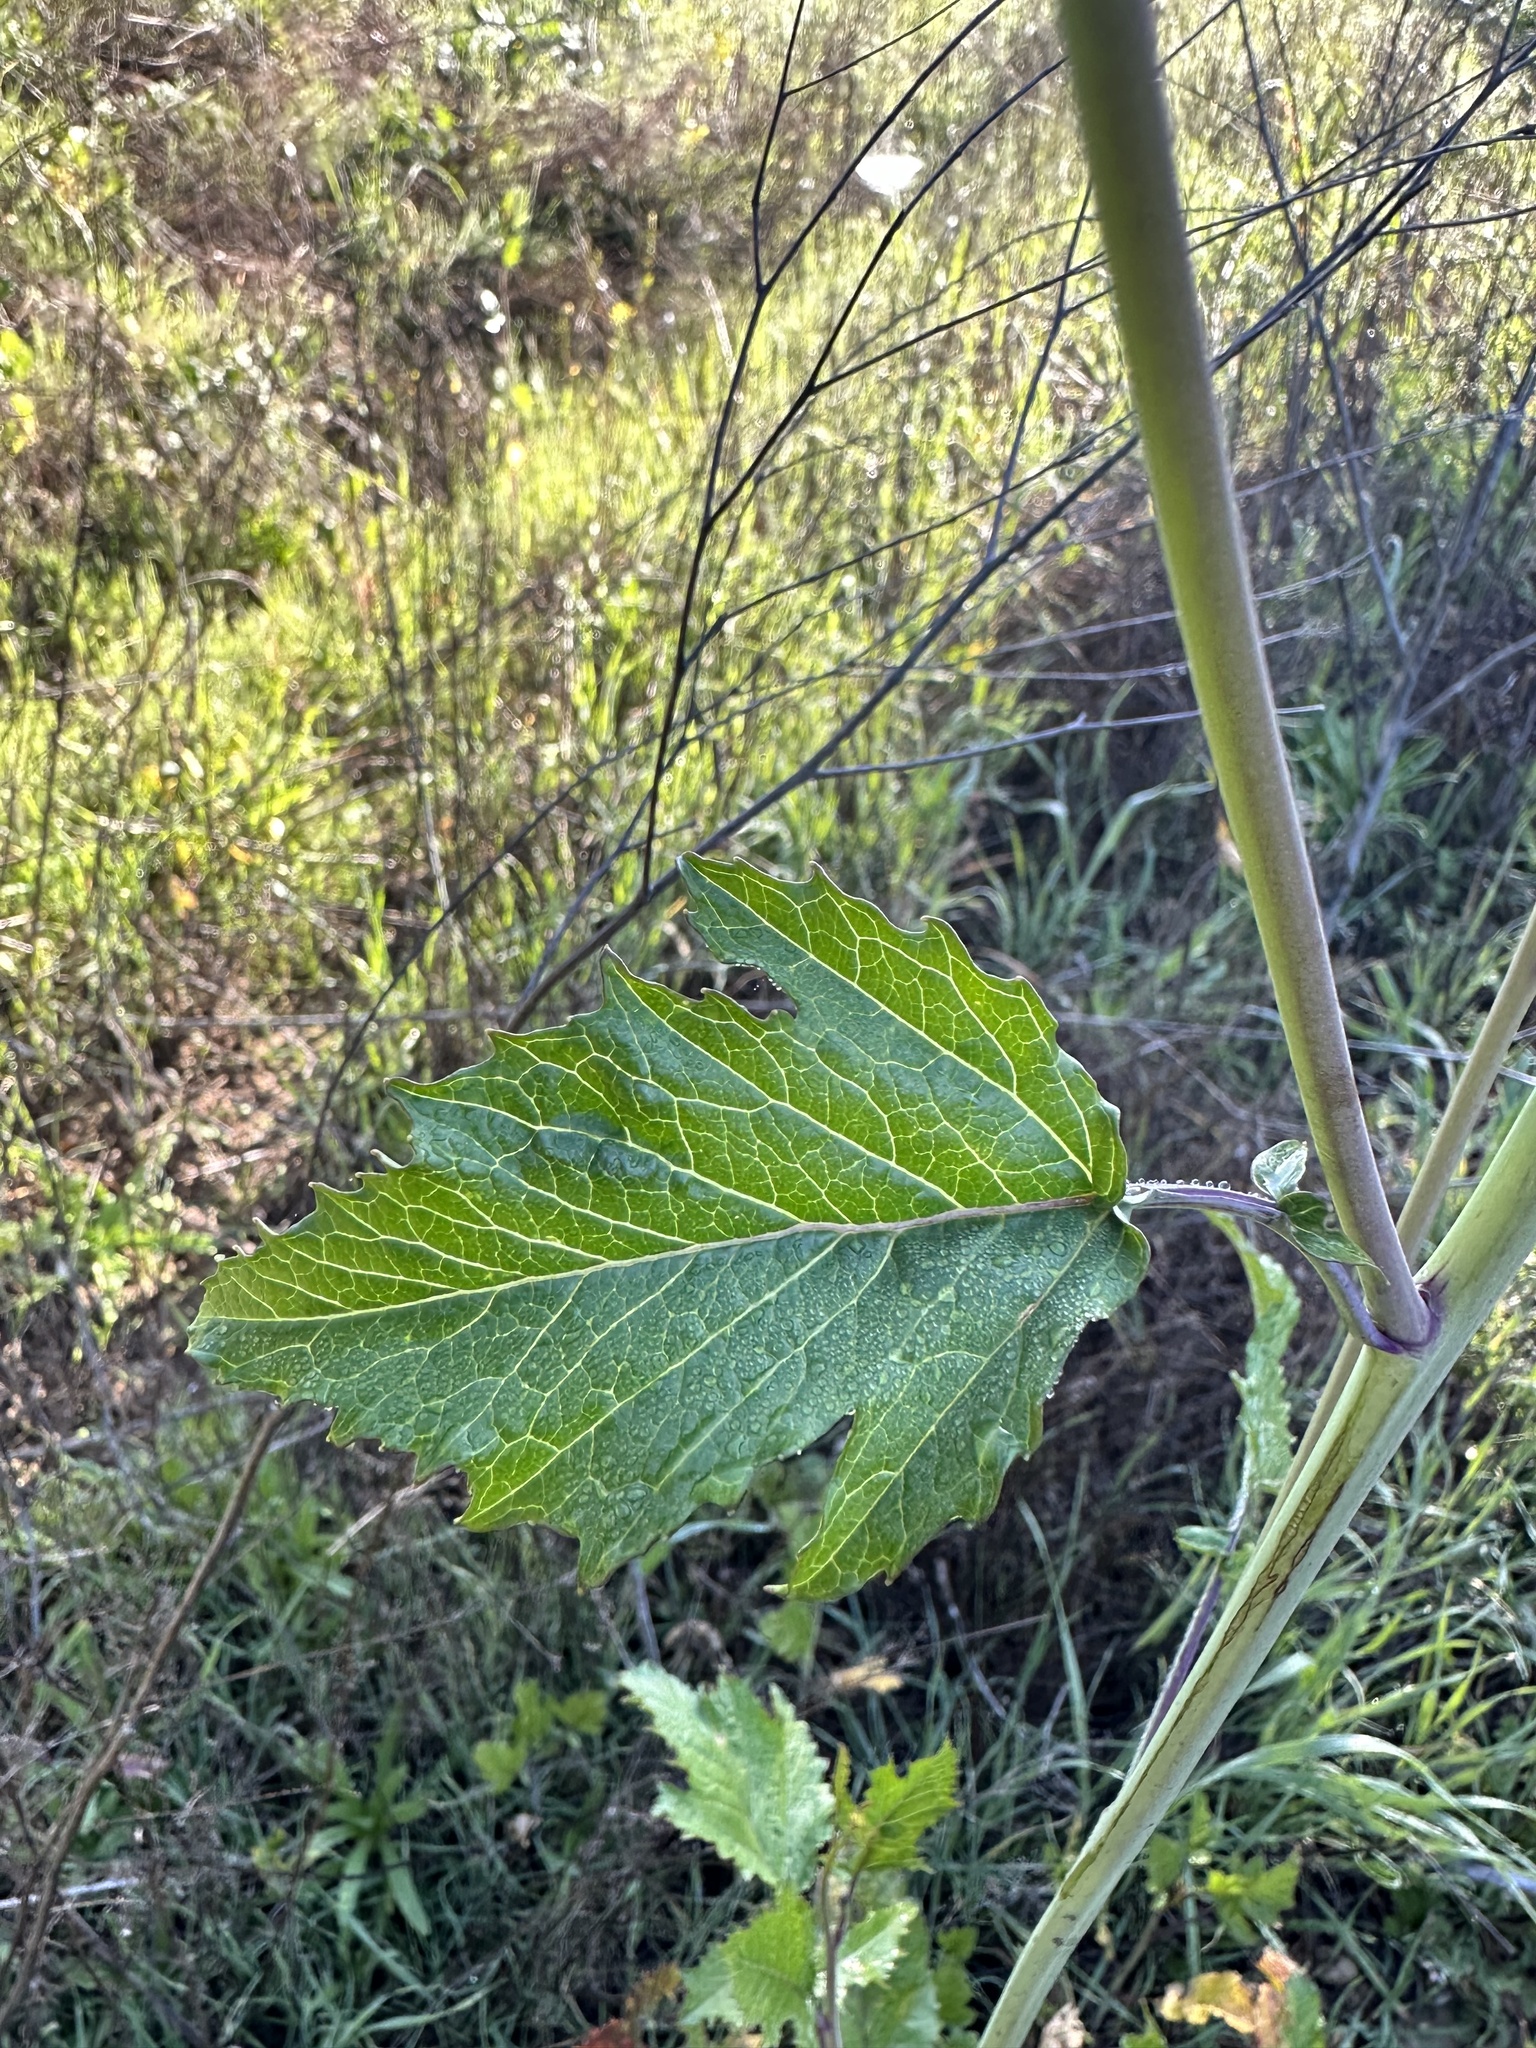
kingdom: Plantae
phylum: Tracheophyta
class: Magnoliopsida
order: Brassicales
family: Brassicaceae
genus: Brassica
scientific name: Brassica nigra
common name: Black mustard
